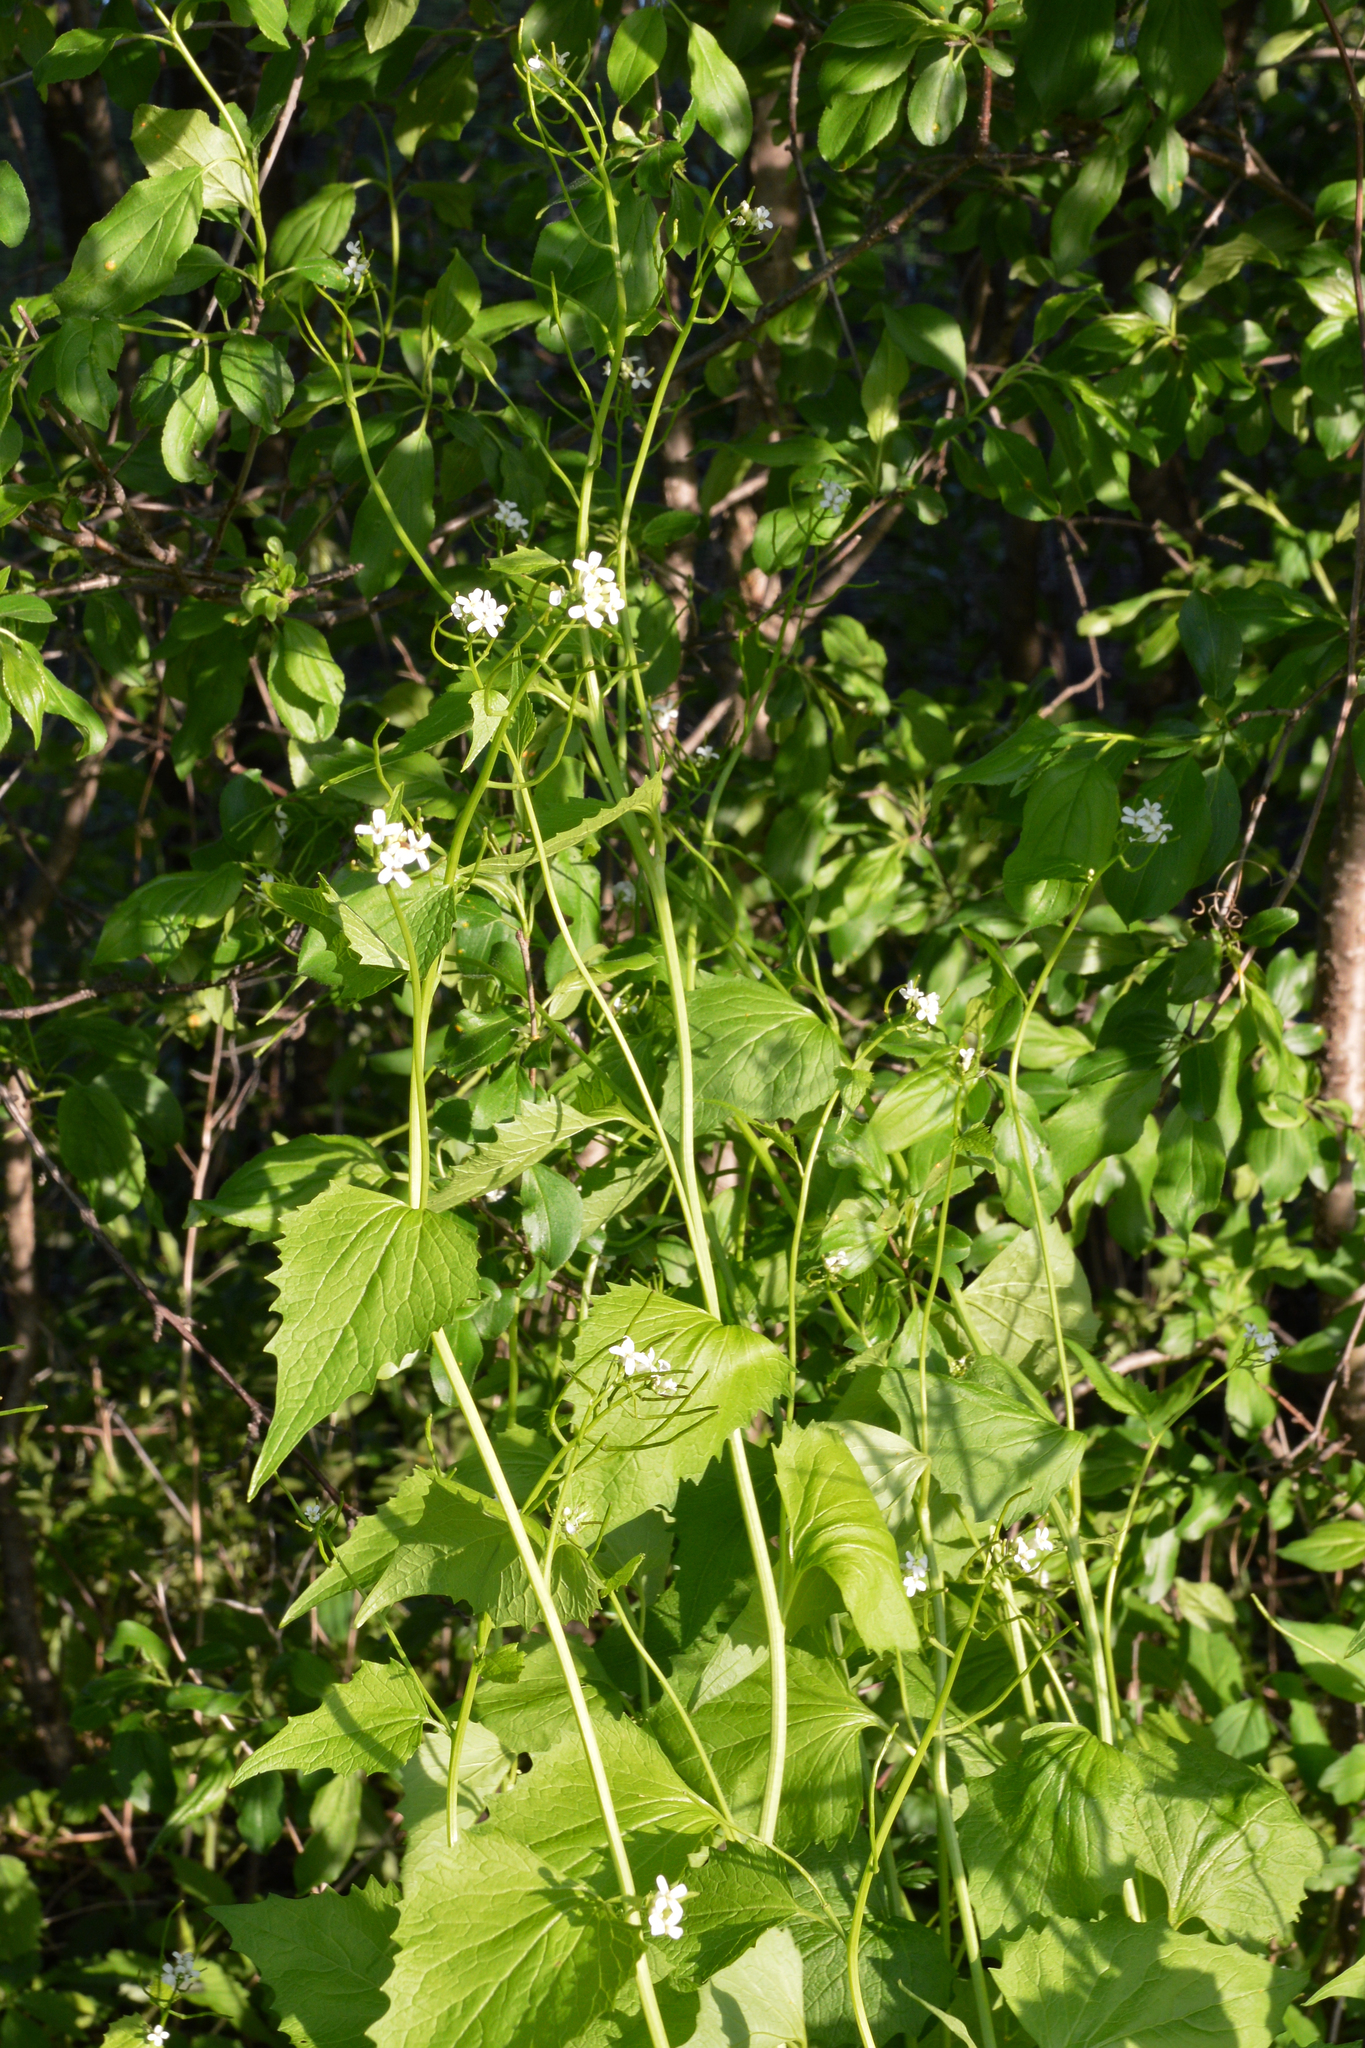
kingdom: Plantae
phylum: Tracheophyta
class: Magnoliopsida
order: Brassicales
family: Brassicaceae
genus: Alliaria
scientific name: Alliaria petiolata
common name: Garlic mustard
